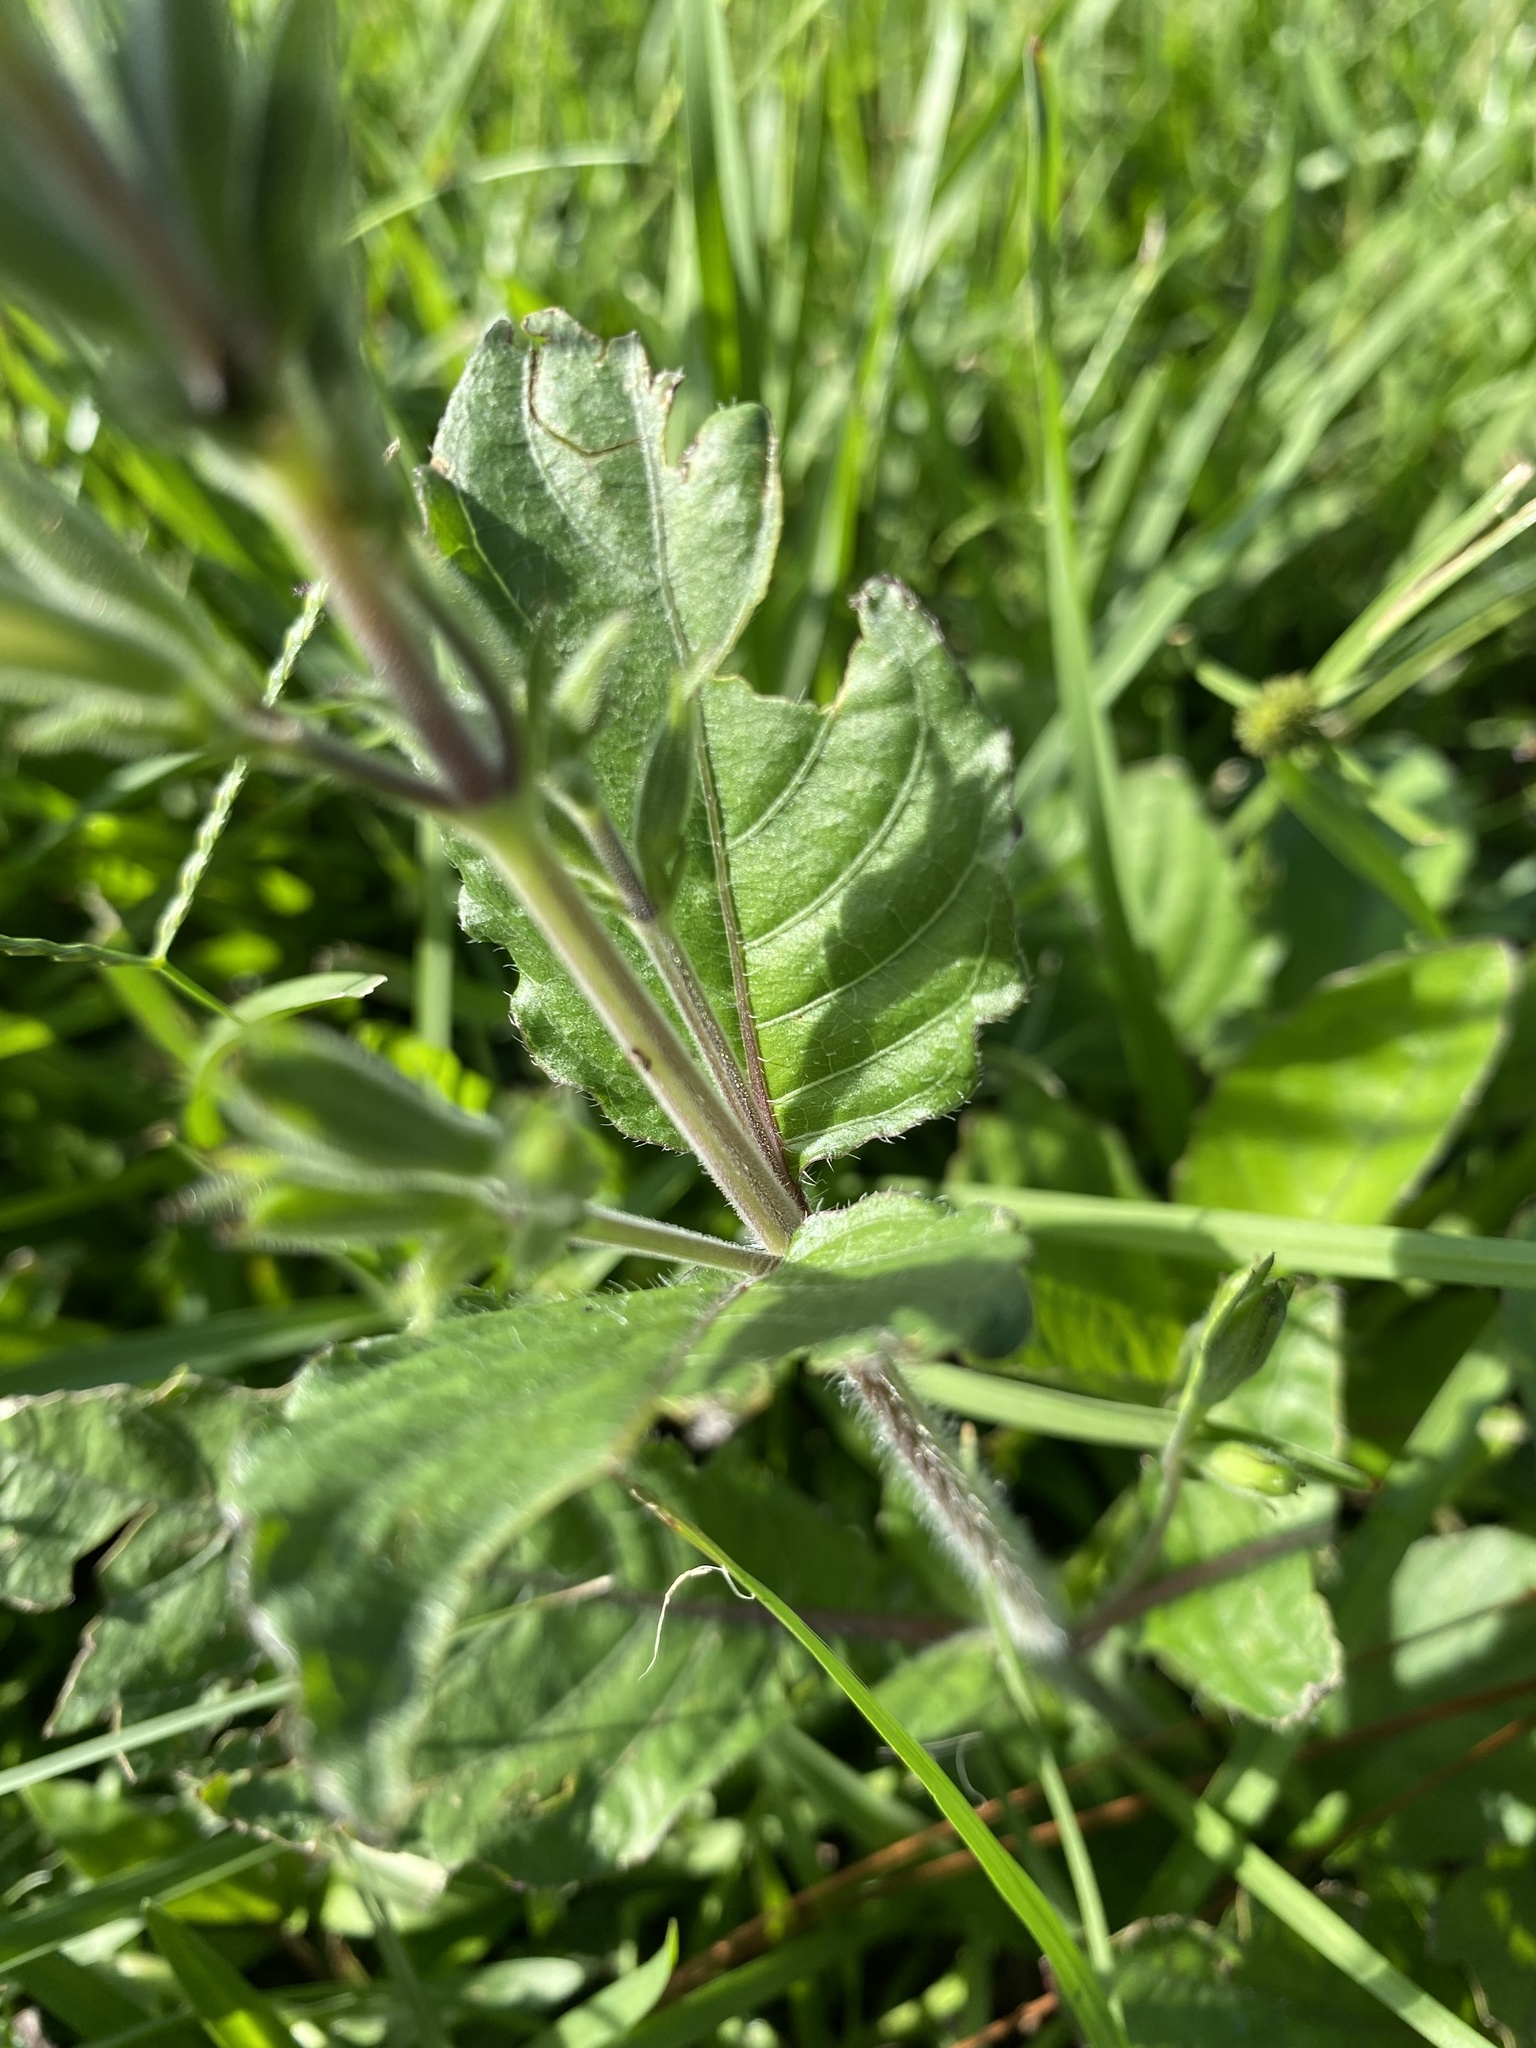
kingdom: Plantae
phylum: Tracheophyta
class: Magnoliopsida
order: Lamiales
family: Acanthaceae
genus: Ruellia
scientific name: Ruellia ciliatiflora
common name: Hairyflower wild petunia
